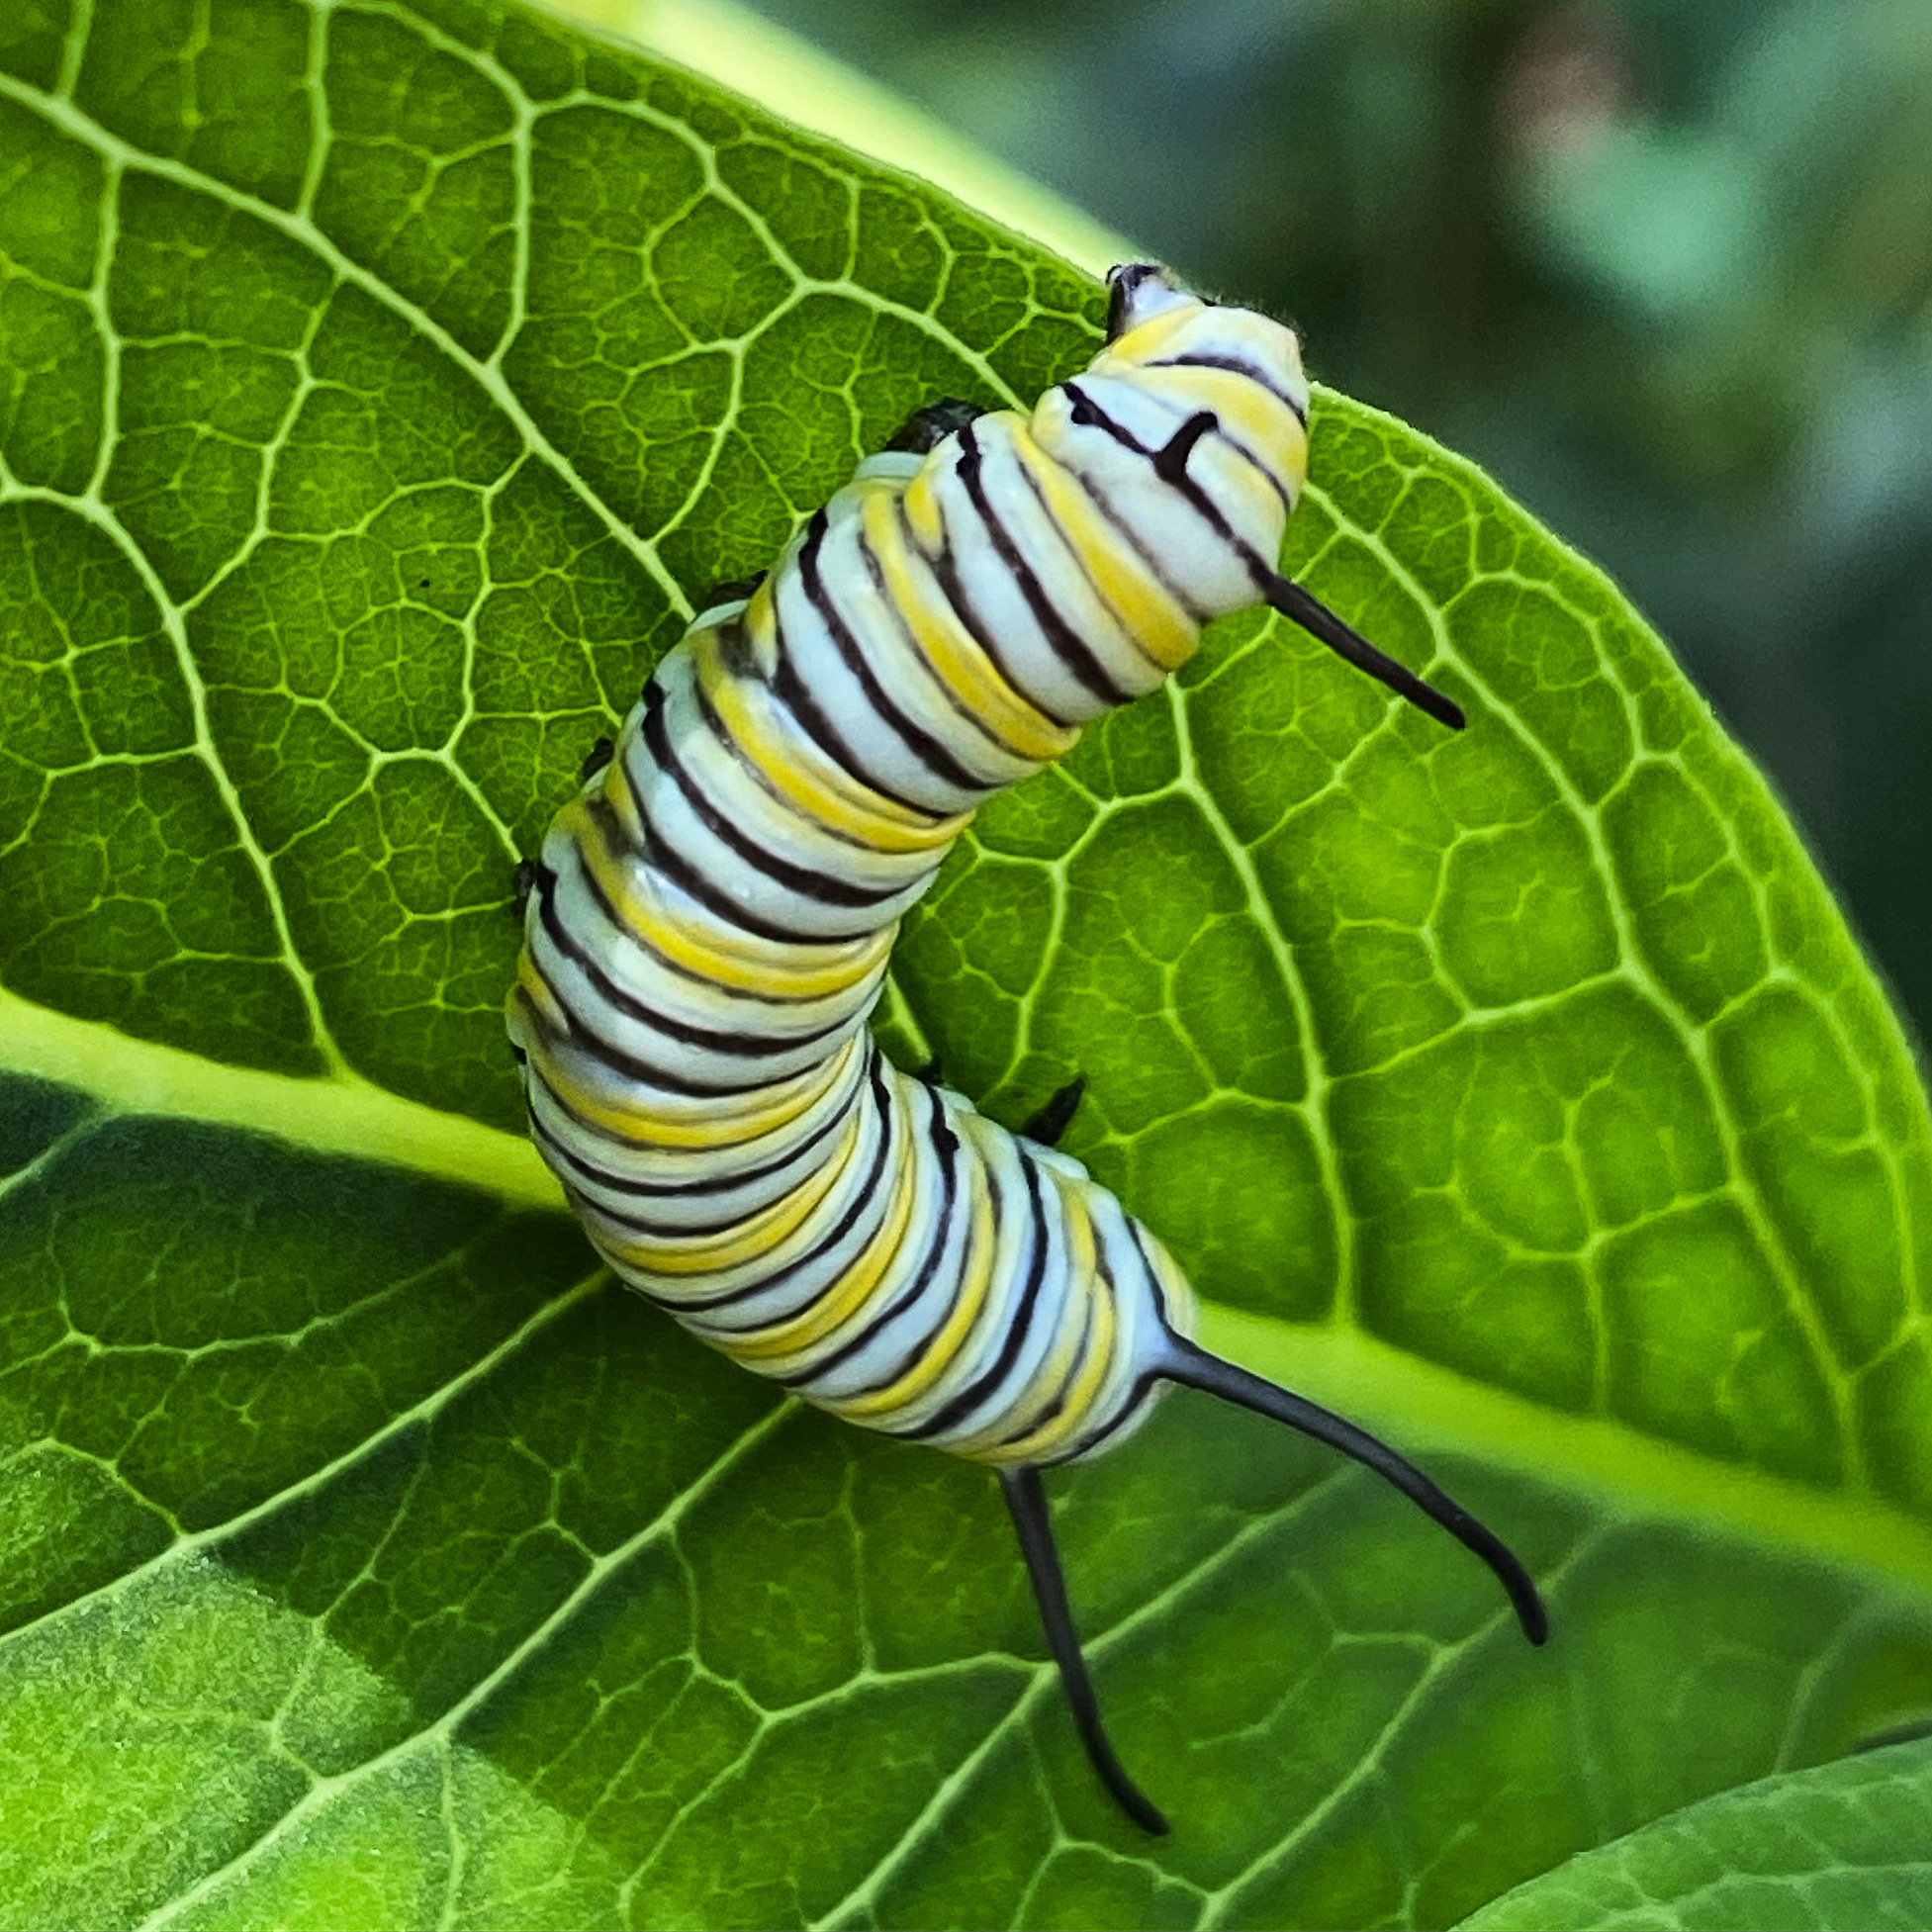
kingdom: Animalia
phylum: Arthropoda
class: Insecta
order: Lepidoptera
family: Nymphalidae
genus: Danaus
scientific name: Danaus plexippus
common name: Monarch
